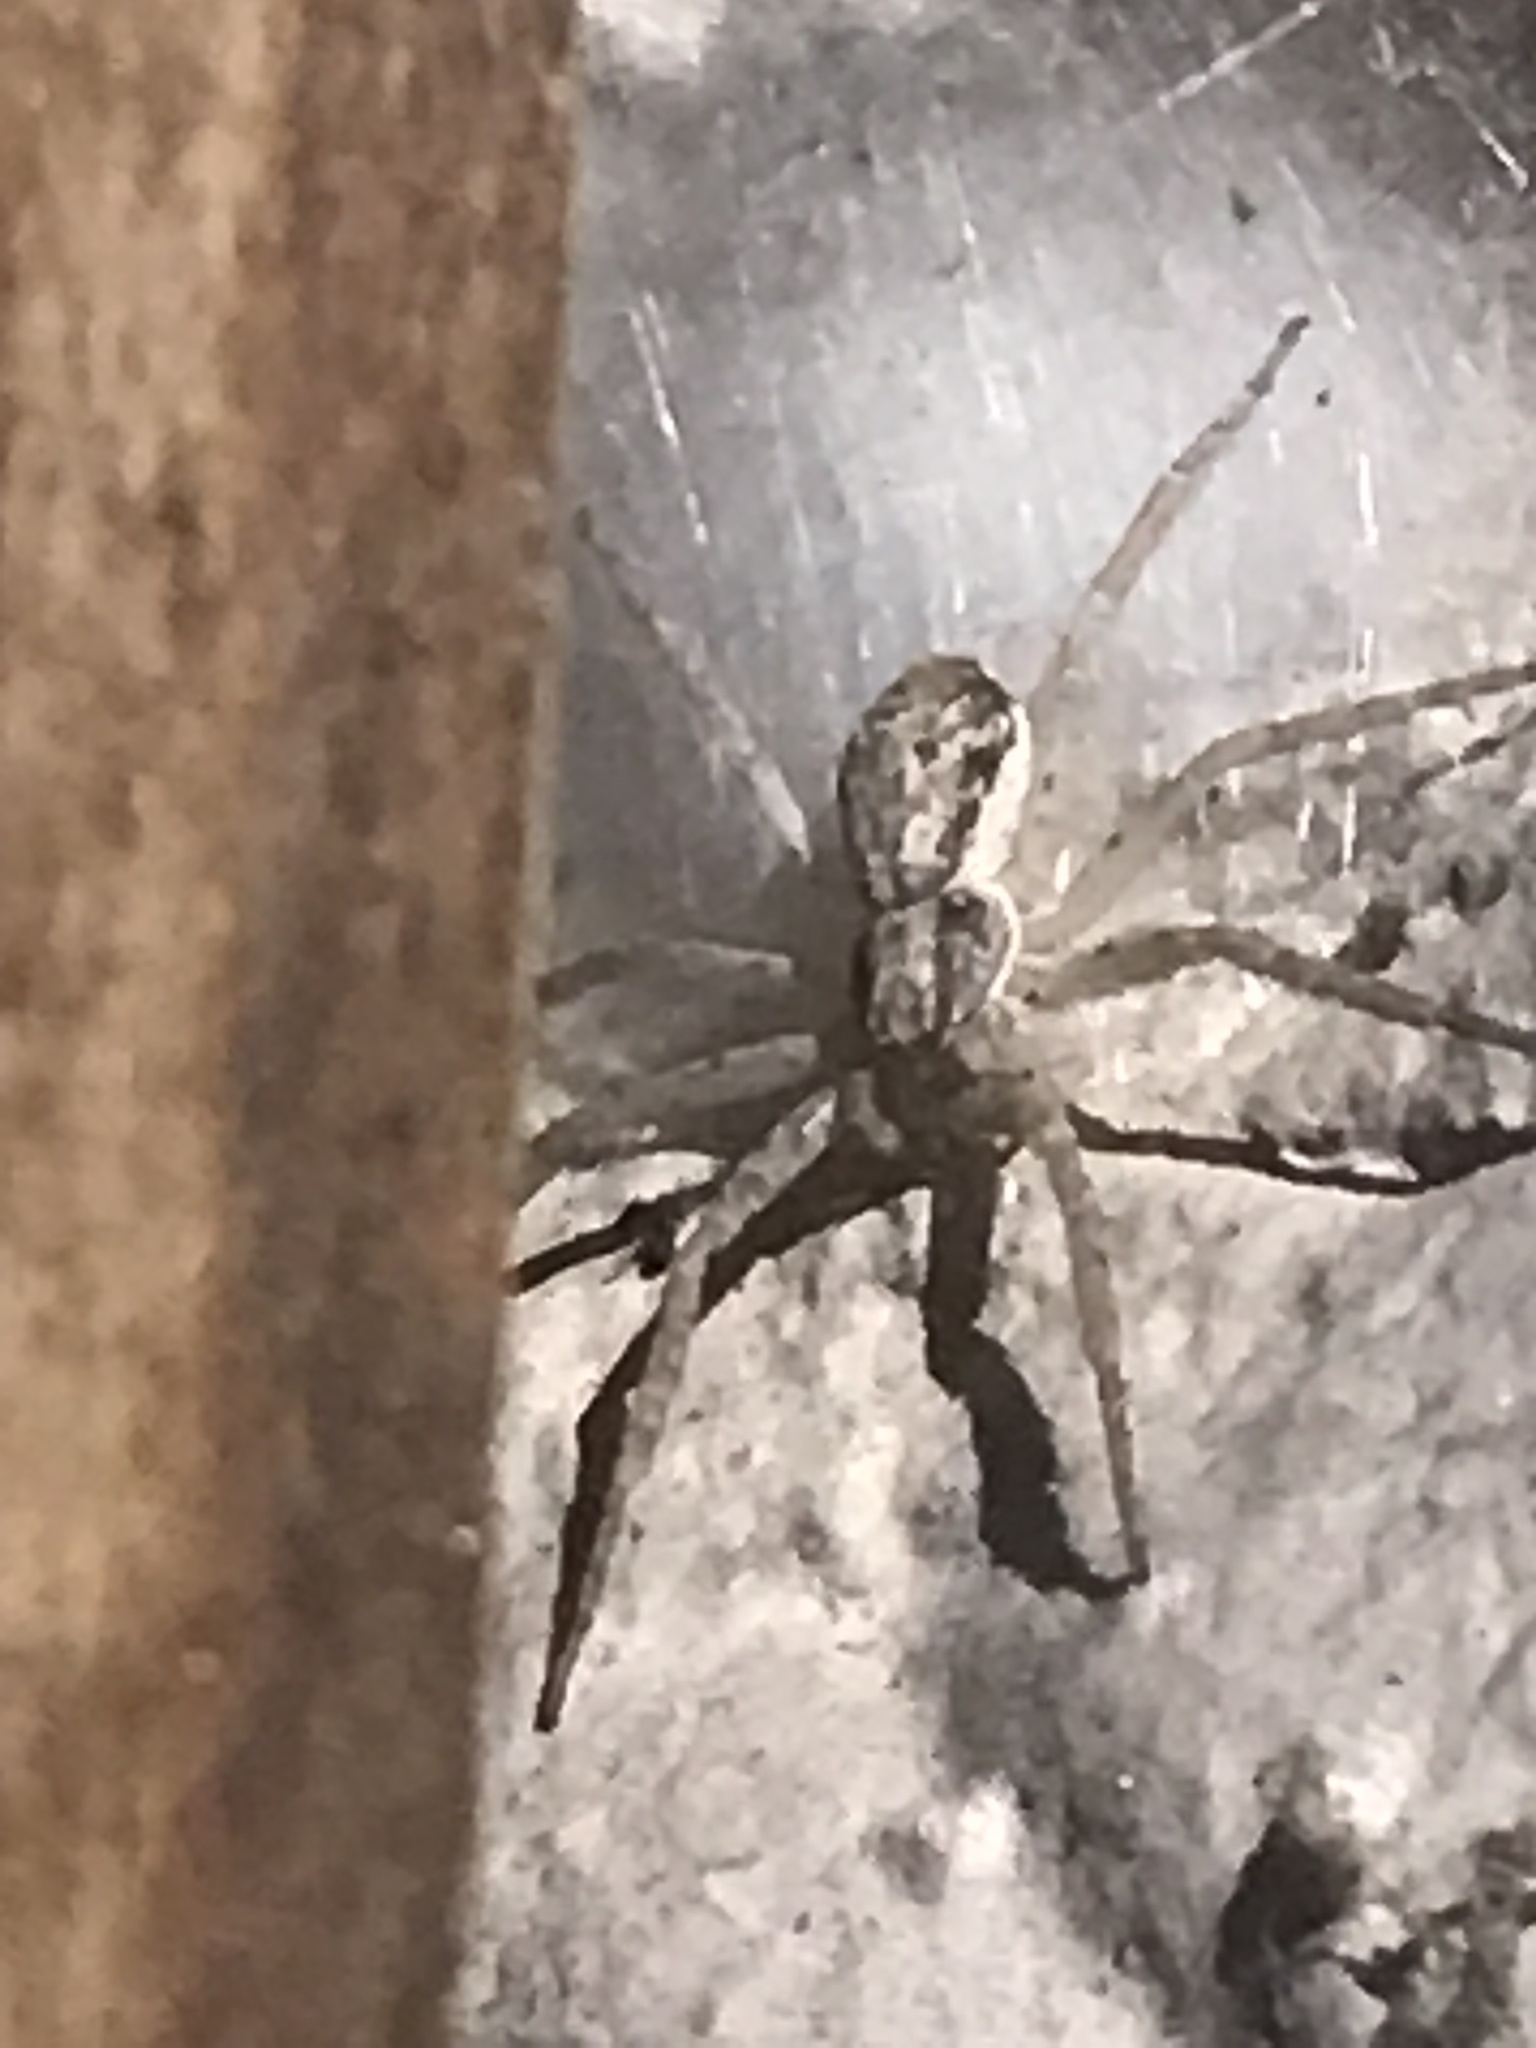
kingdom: Animalia
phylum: Arthropoda
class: Arachnida
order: Araneae
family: Philodromidae
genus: Philodromus
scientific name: Philodromus dispar
